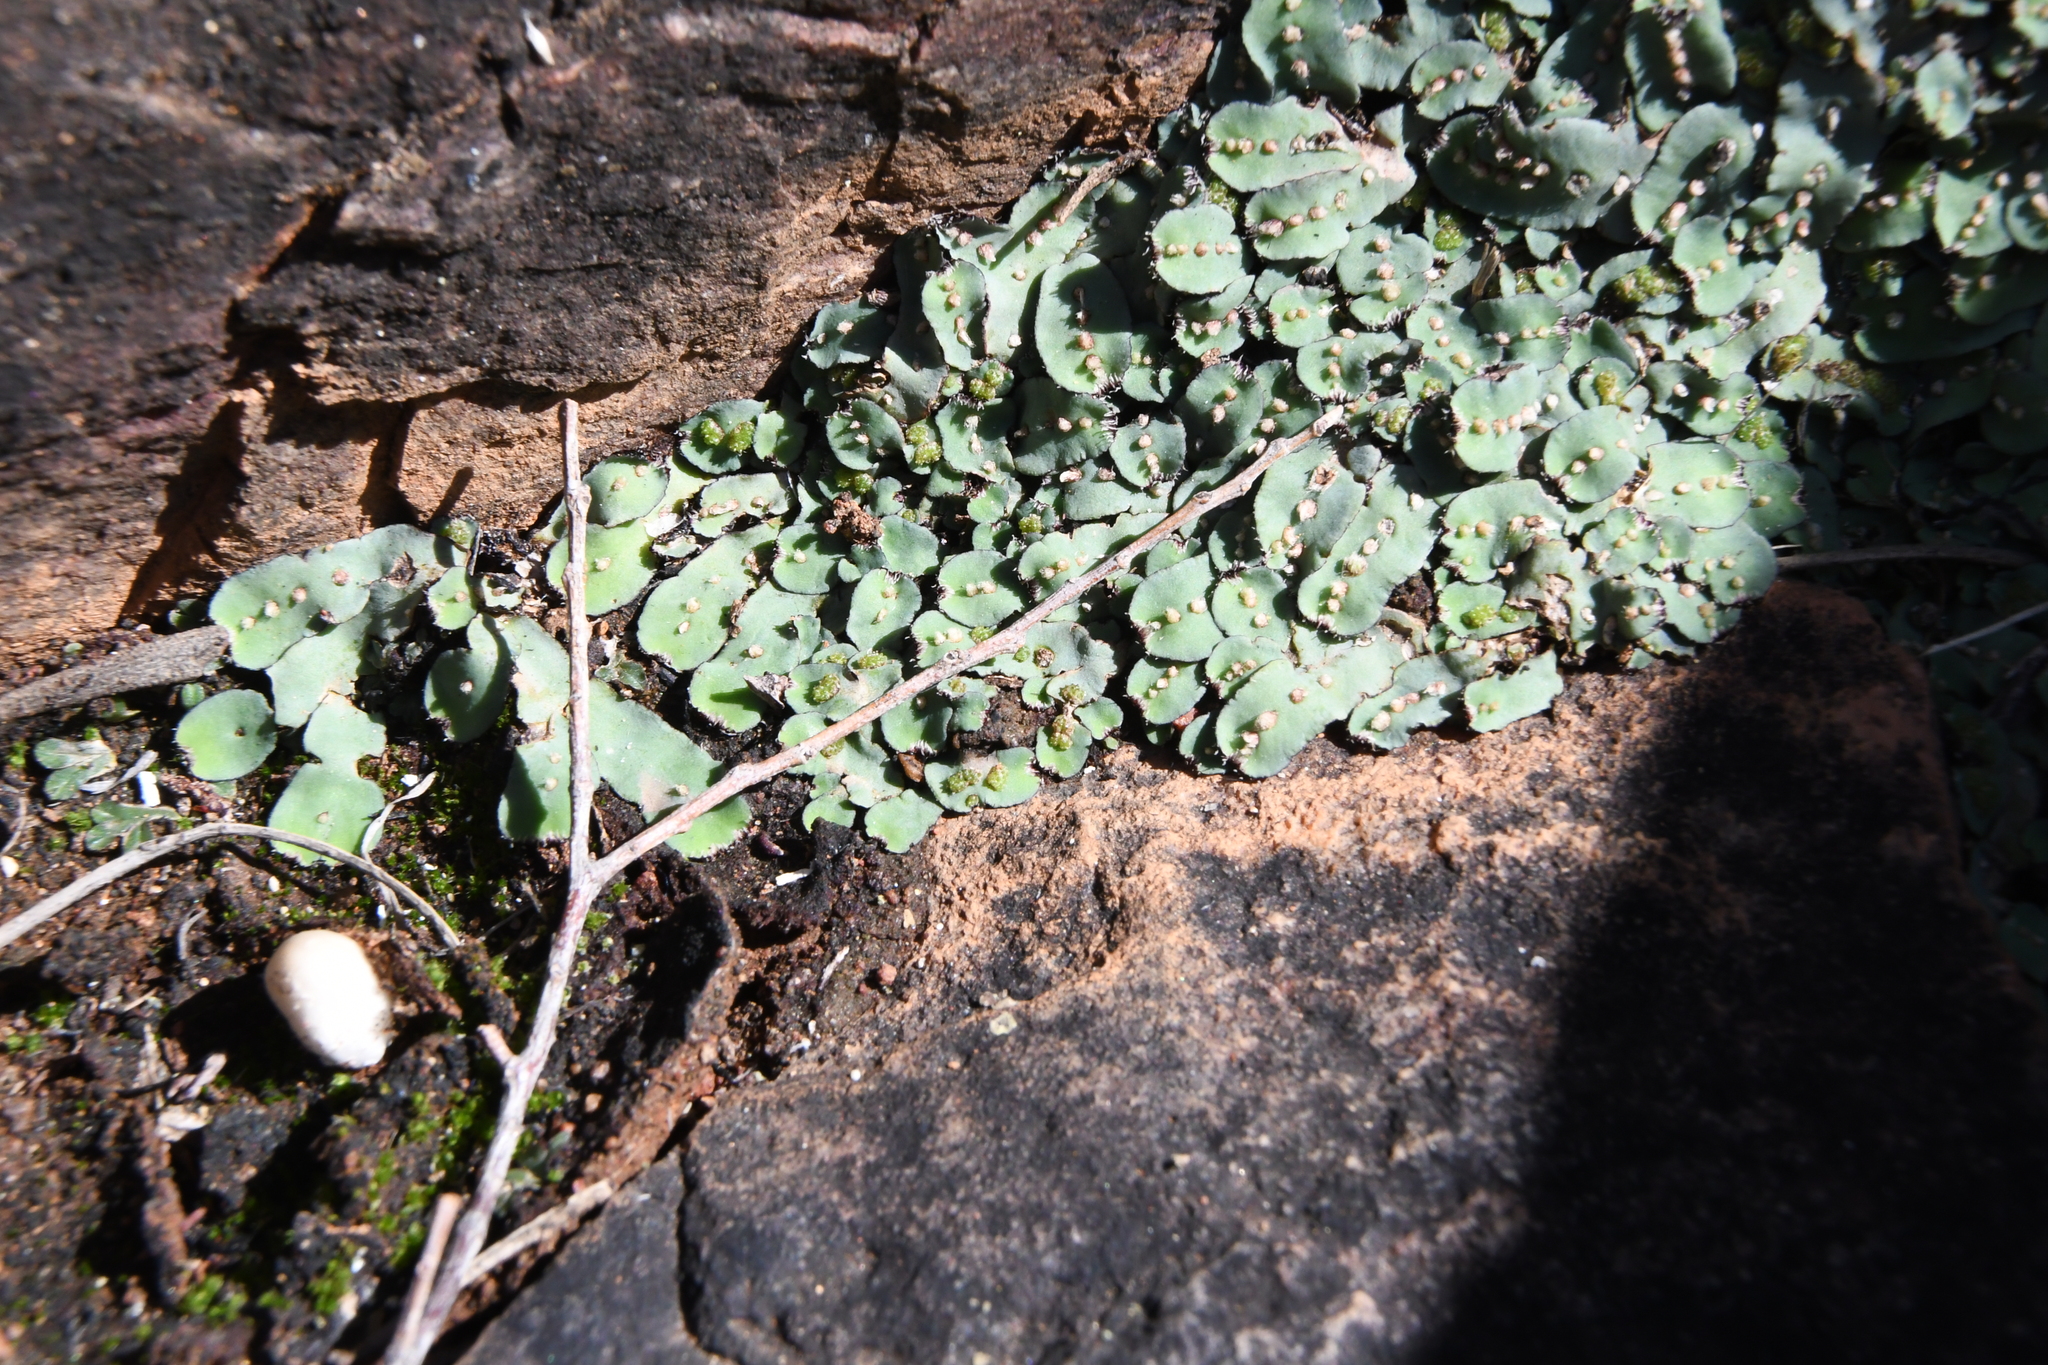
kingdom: Plantae
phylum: Marchantiophyta
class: Marchantiopsida
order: Marchantiales
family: Aytoniaceae
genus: Plagiochasma
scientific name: Plagiochasma rupestre
